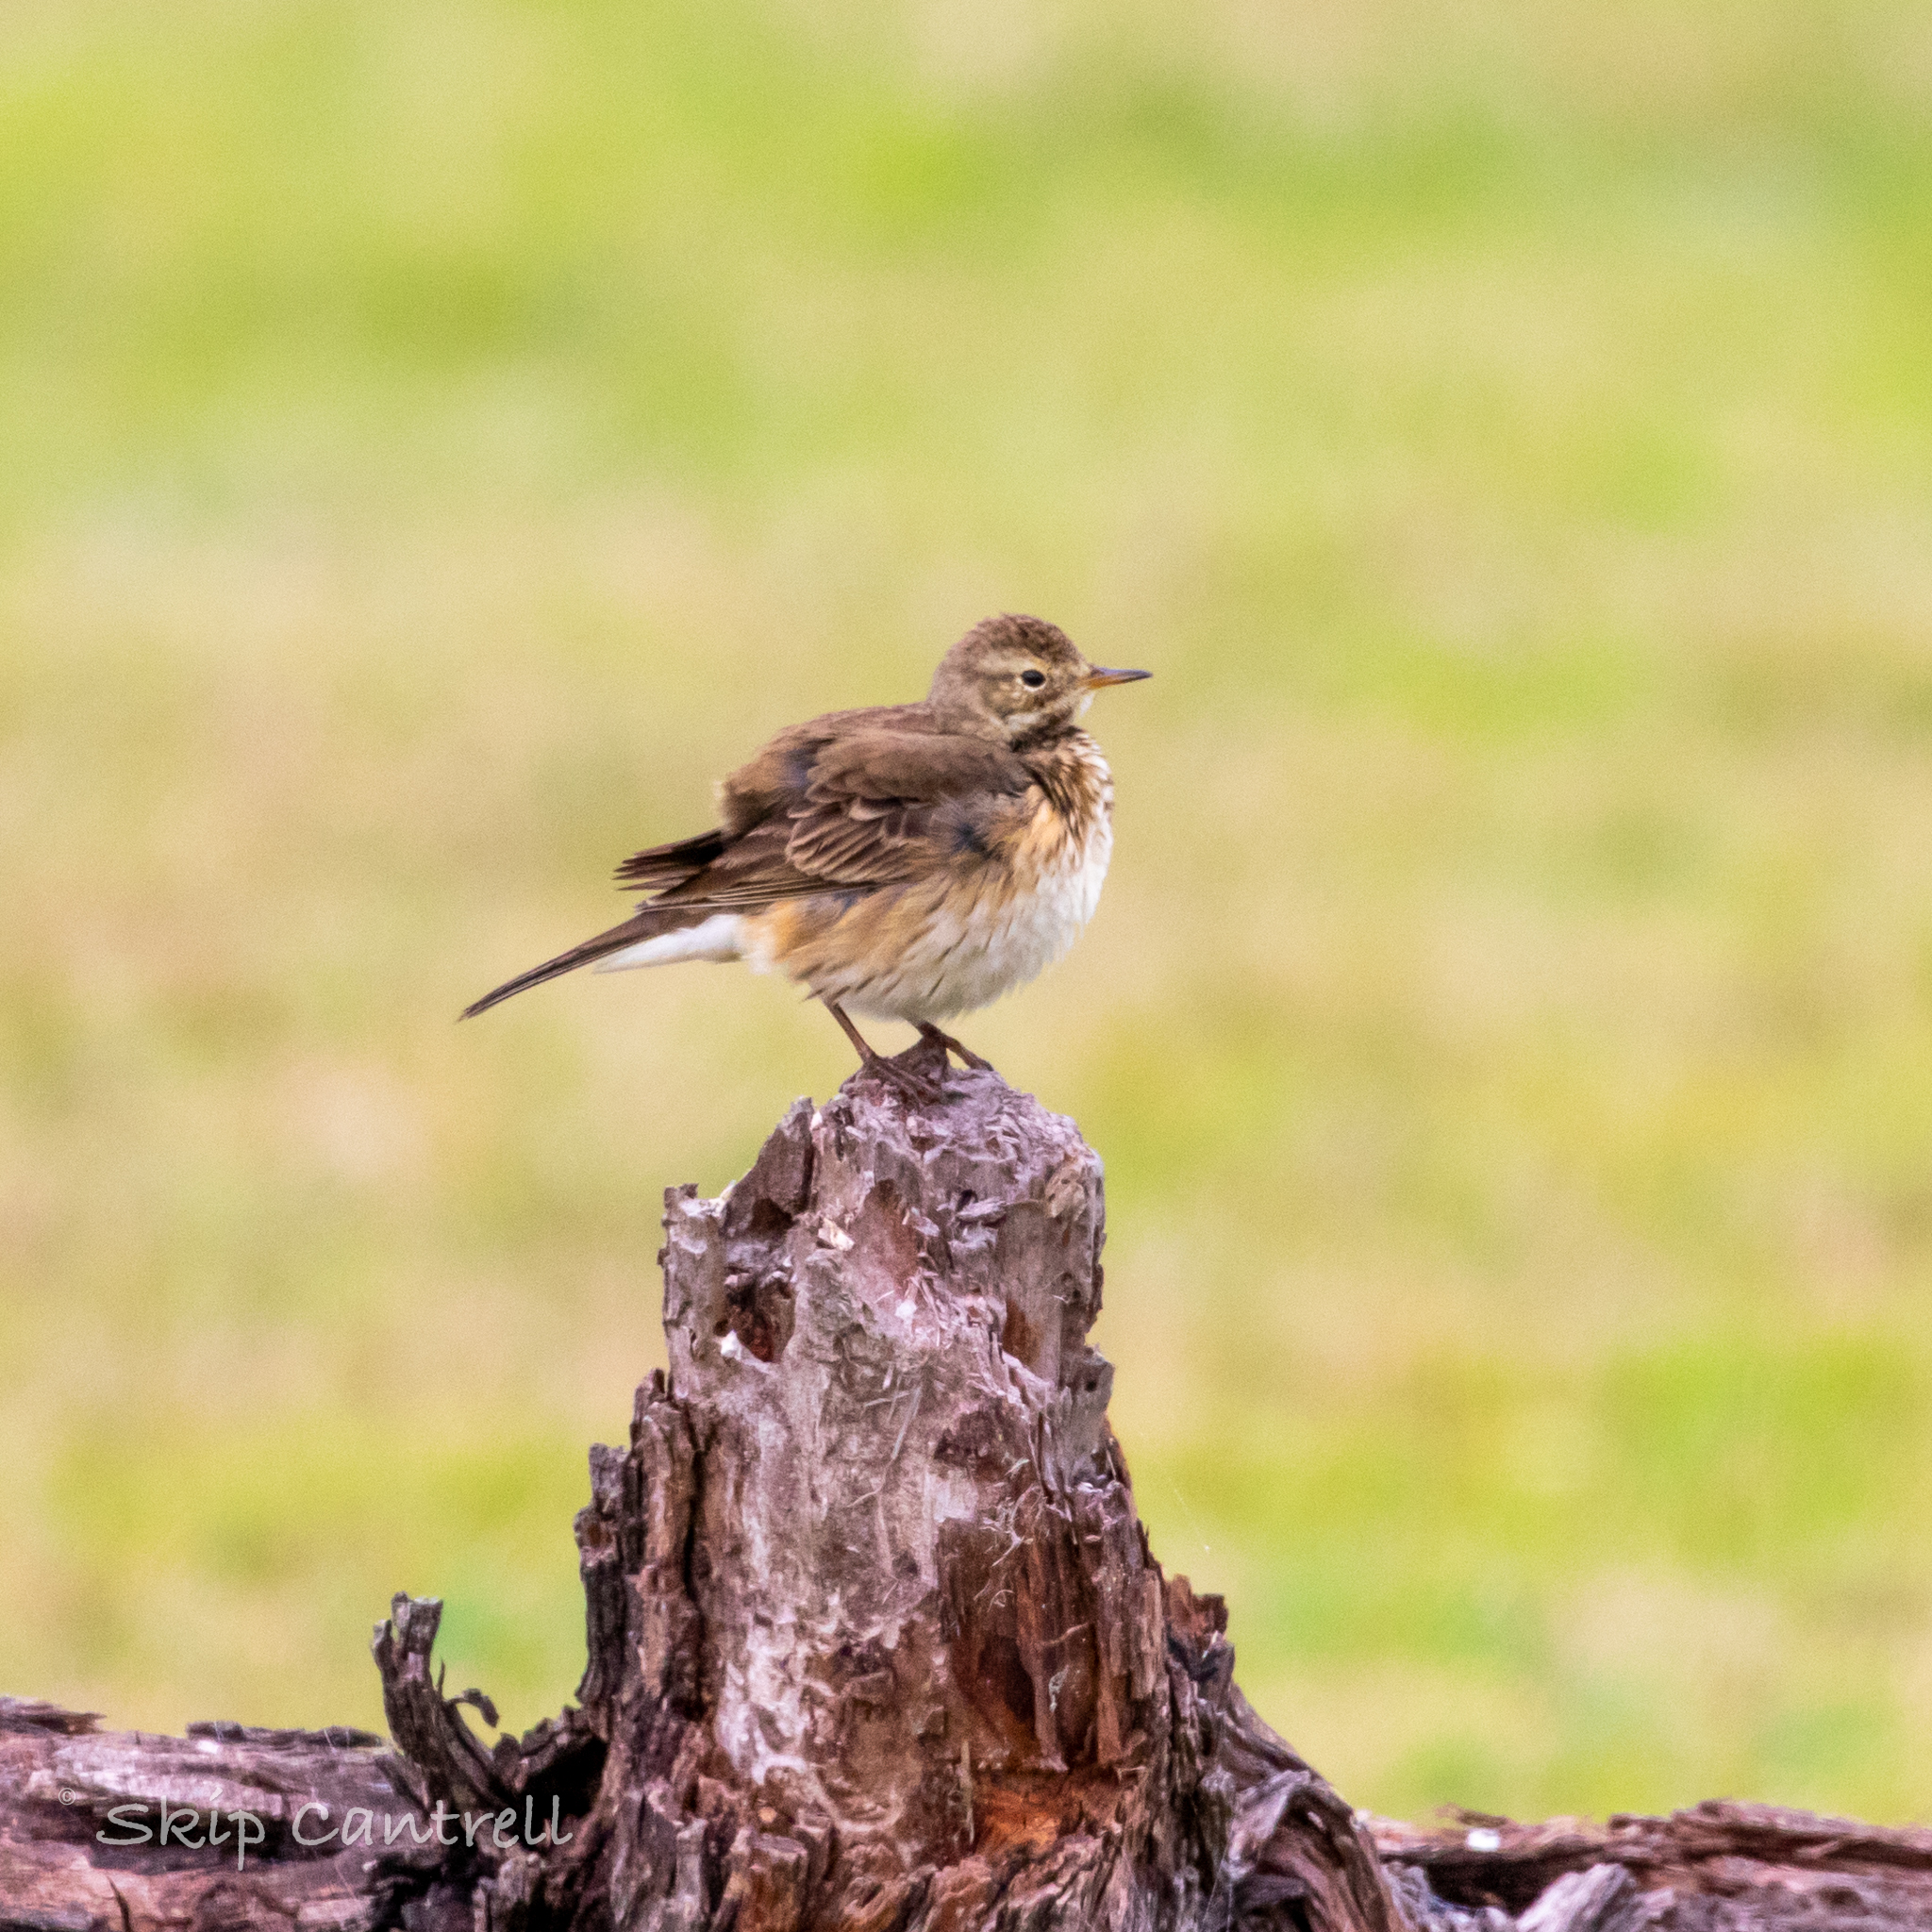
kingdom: Animalia
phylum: Chordata
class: Aves
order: Passeriformes
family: Motacillidae
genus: Anthus
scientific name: Anthus rubescens
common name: Buff-bellied pipit
